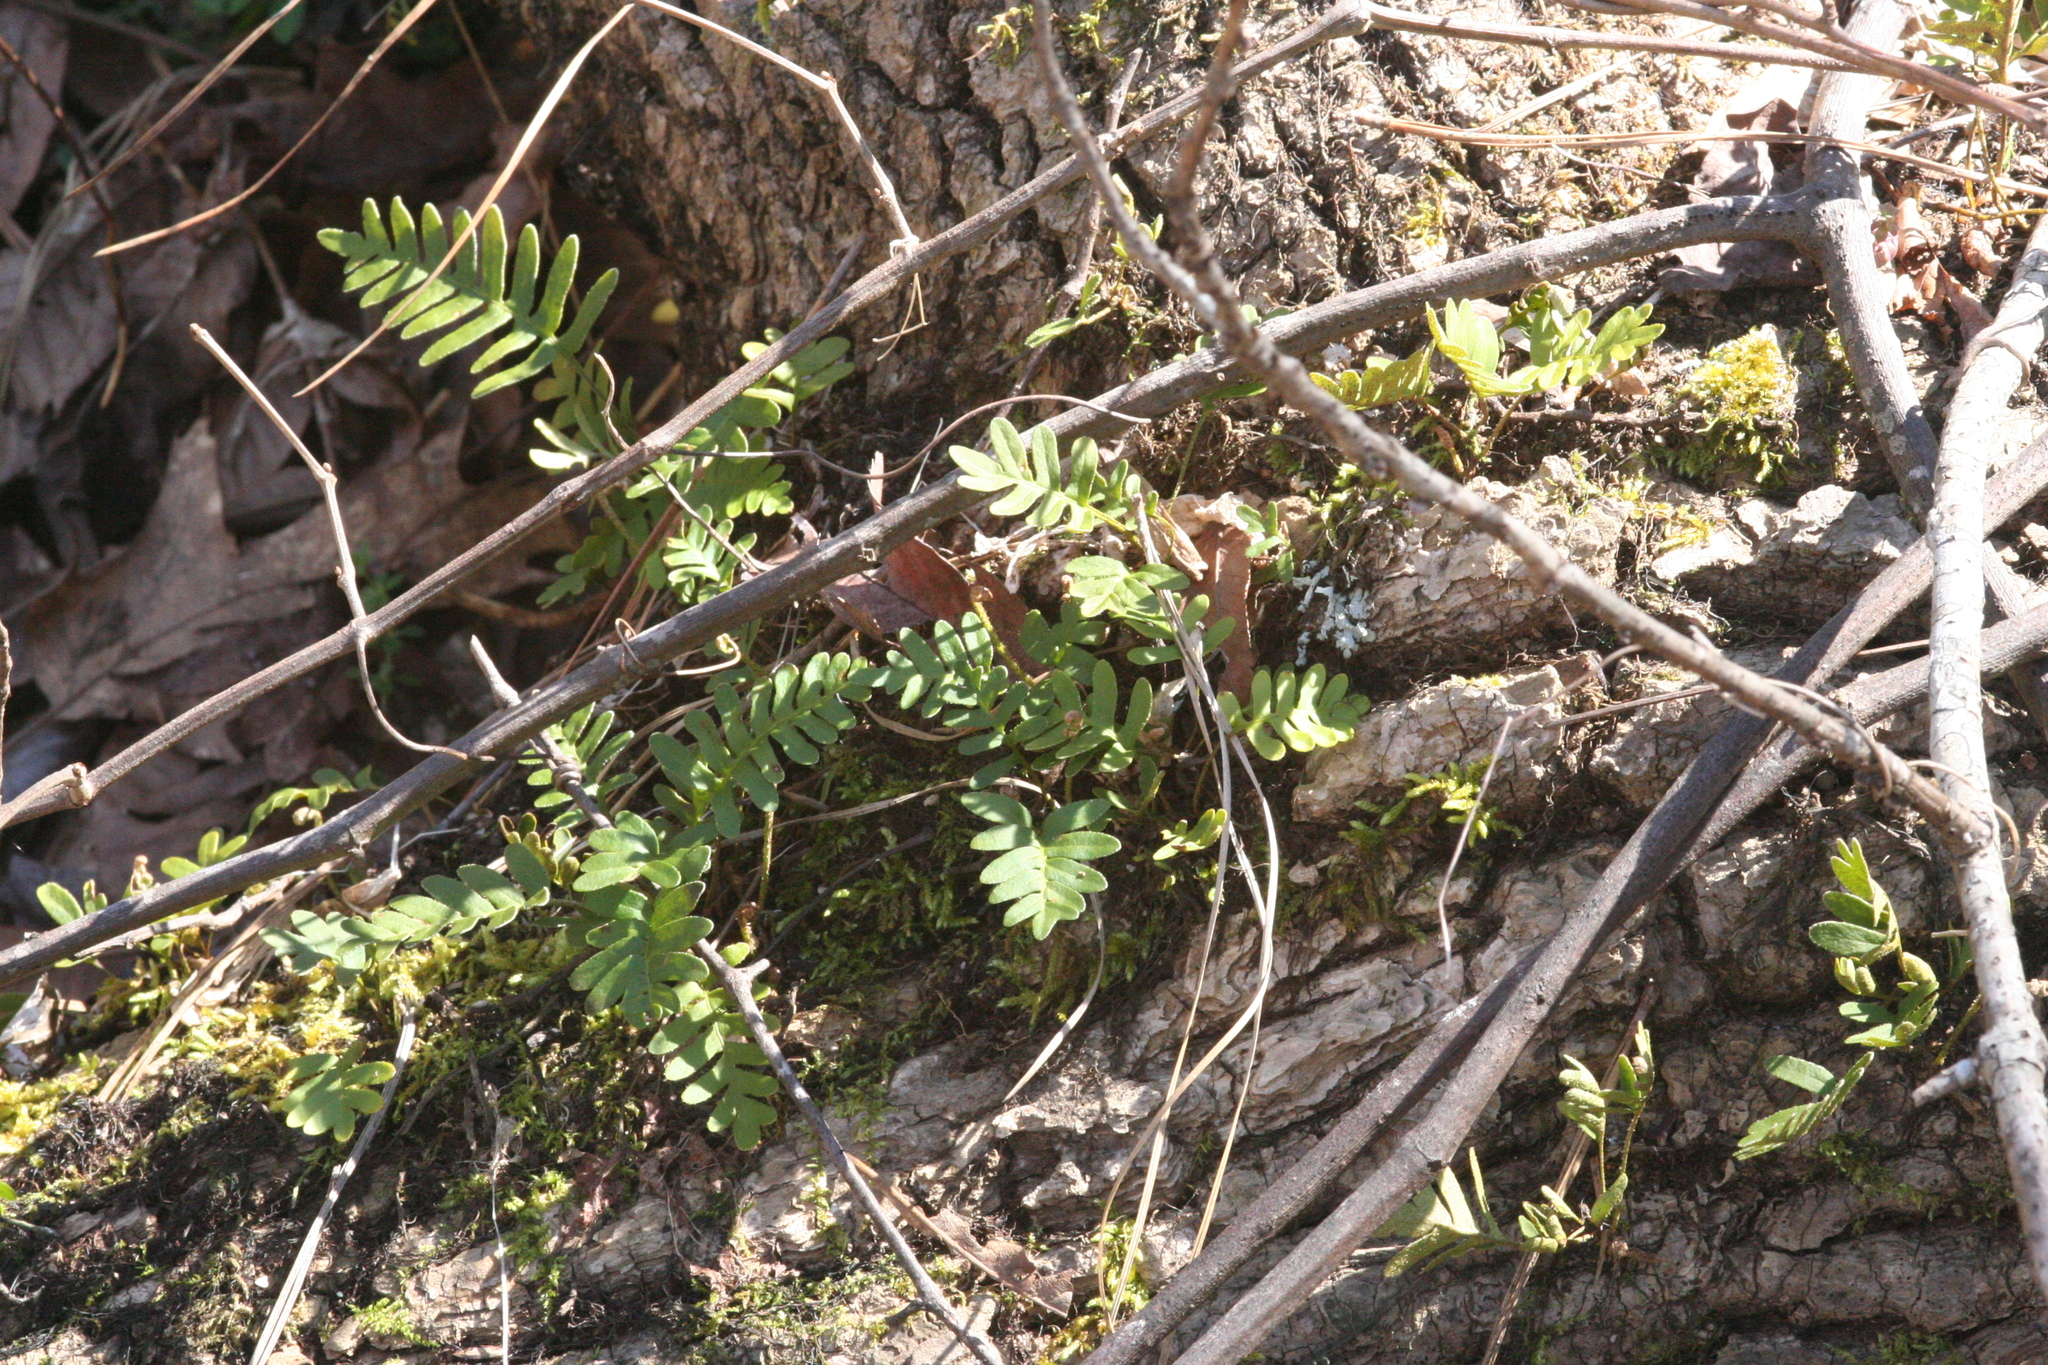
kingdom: Plantae
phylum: Tracheophyta
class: Polypodiopsida
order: Polypodiales
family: Polypodiaceae
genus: Pleopeltis
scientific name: Pleopeltis michauxiana
